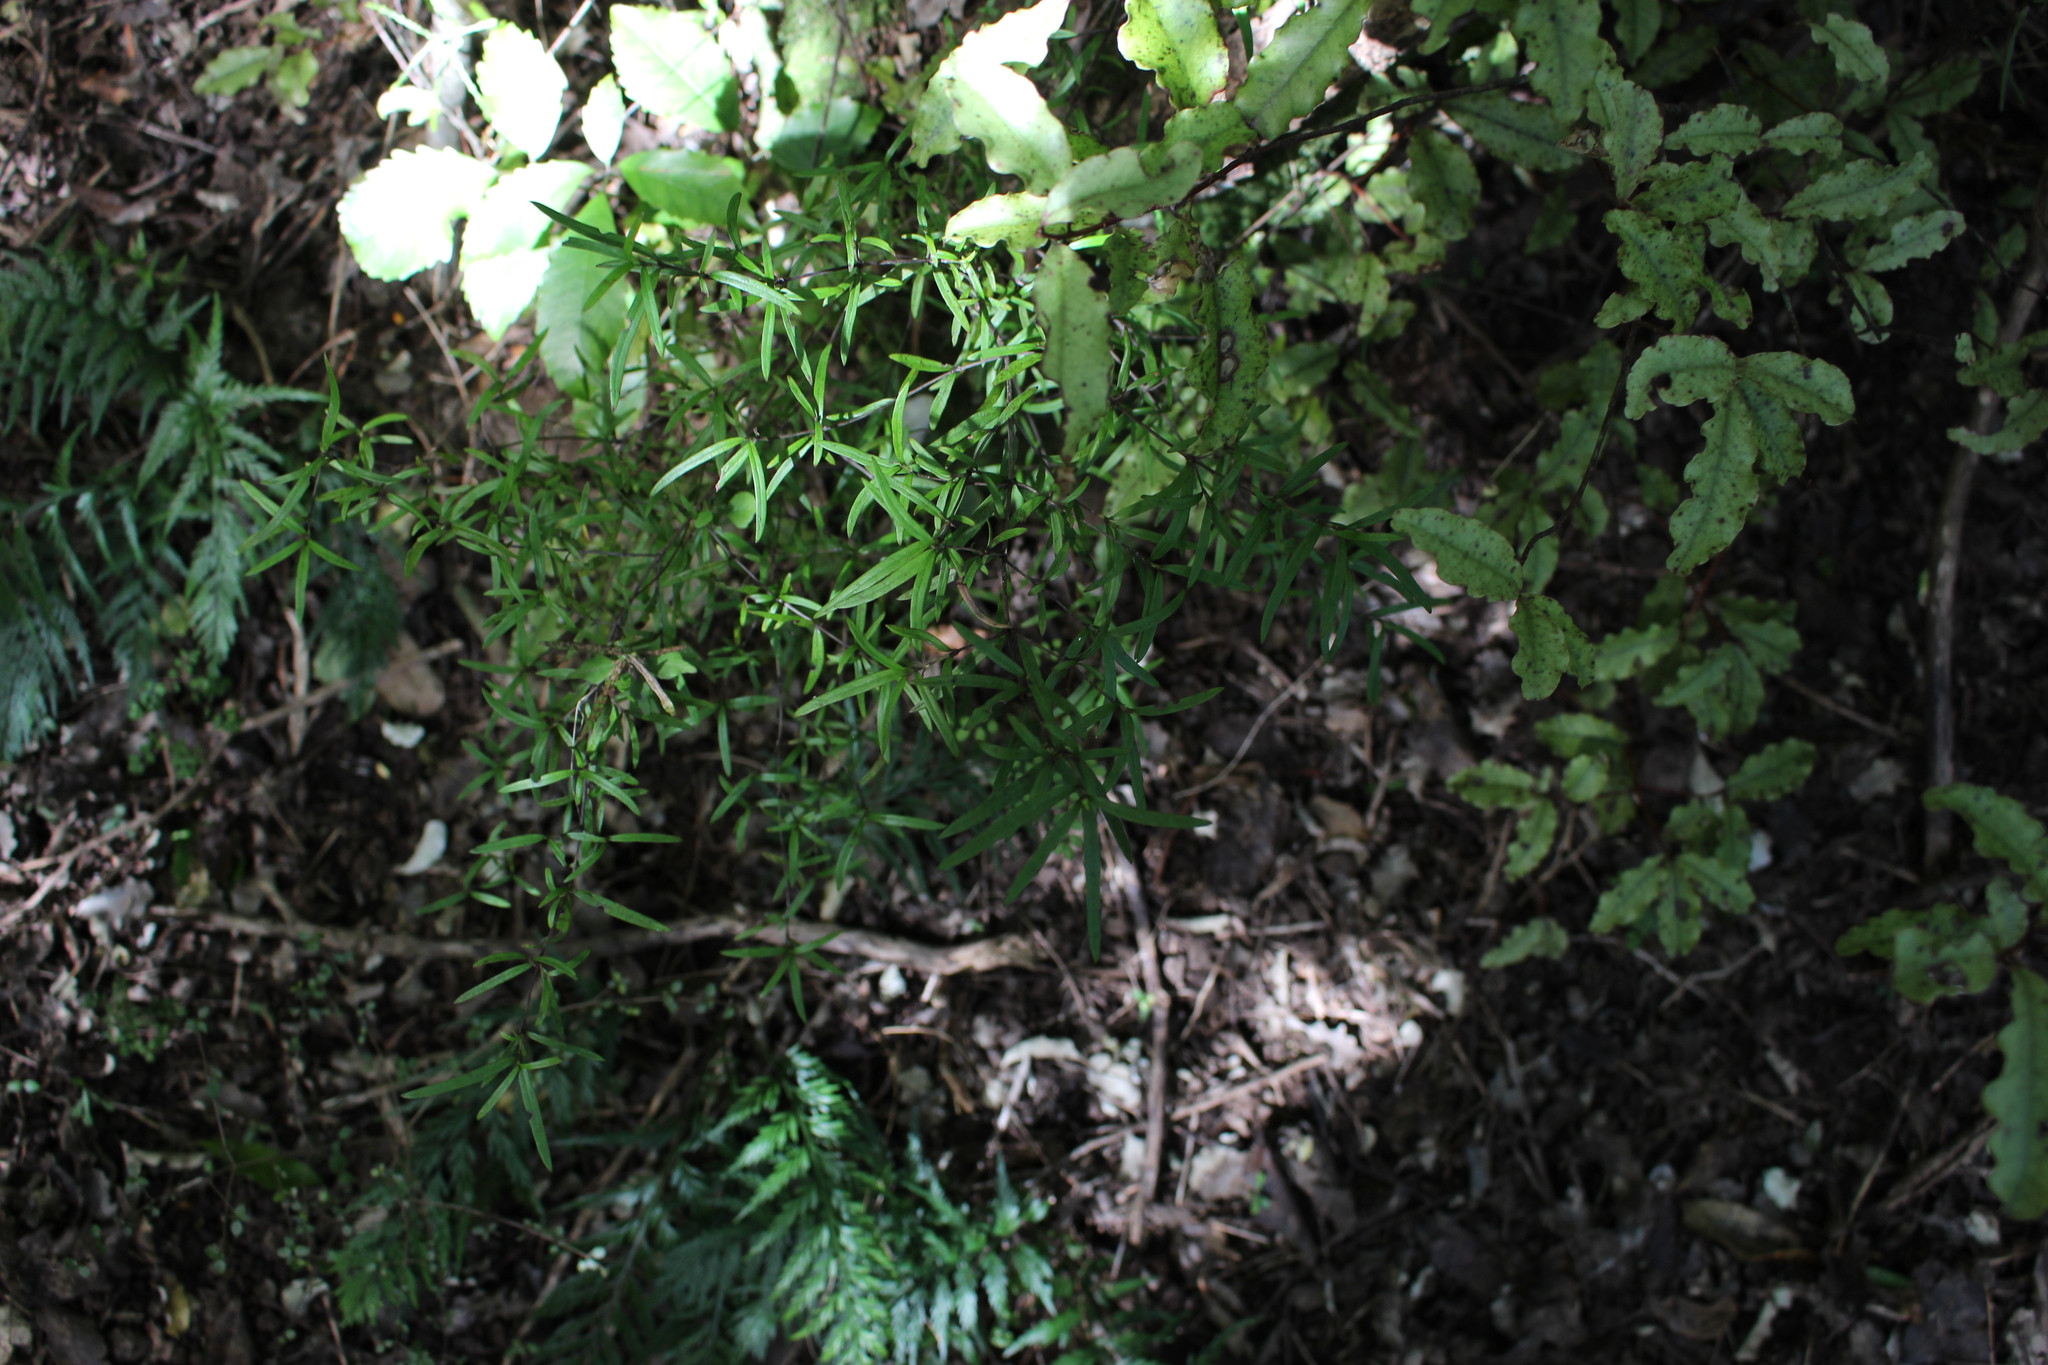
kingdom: Plantae
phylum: Tracheophyta
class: Magnoliopsida
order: Gentianales
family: Rubiaceae
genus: Coprosma
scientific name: Coprosma linariifolia
